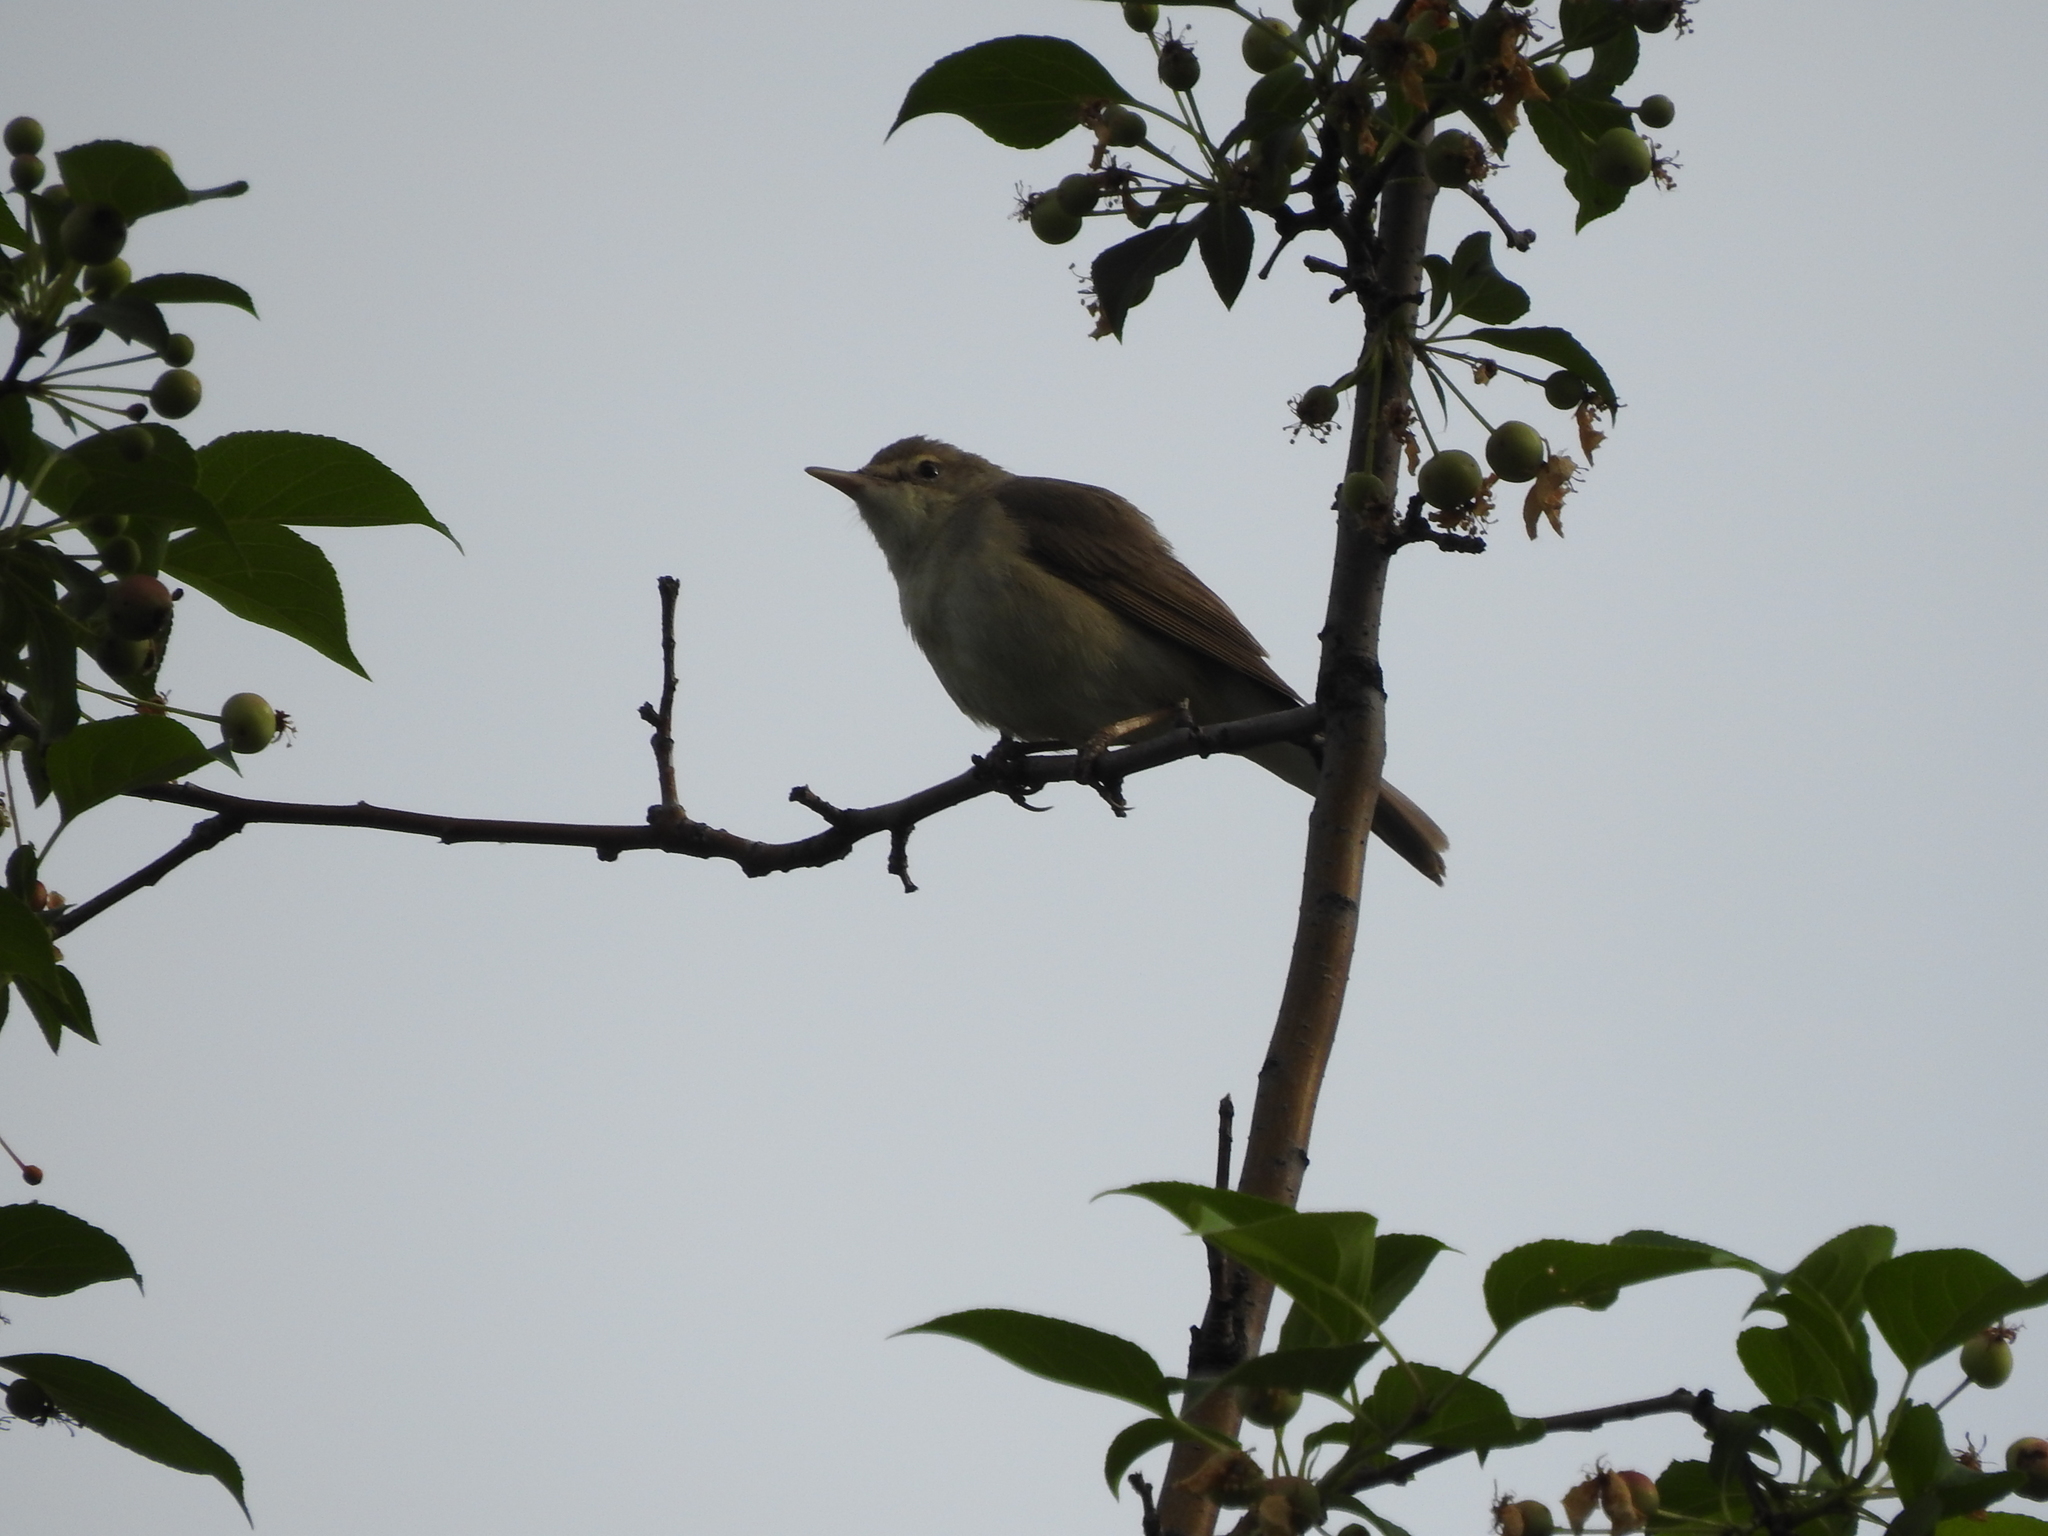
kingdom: Animalia
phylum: Chordata
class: Aves
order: Passeriformes
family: Acrocephalidae
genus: Acrocephalus
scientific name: Acrocephalus dumetorum
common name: Blyth's reed warbler
